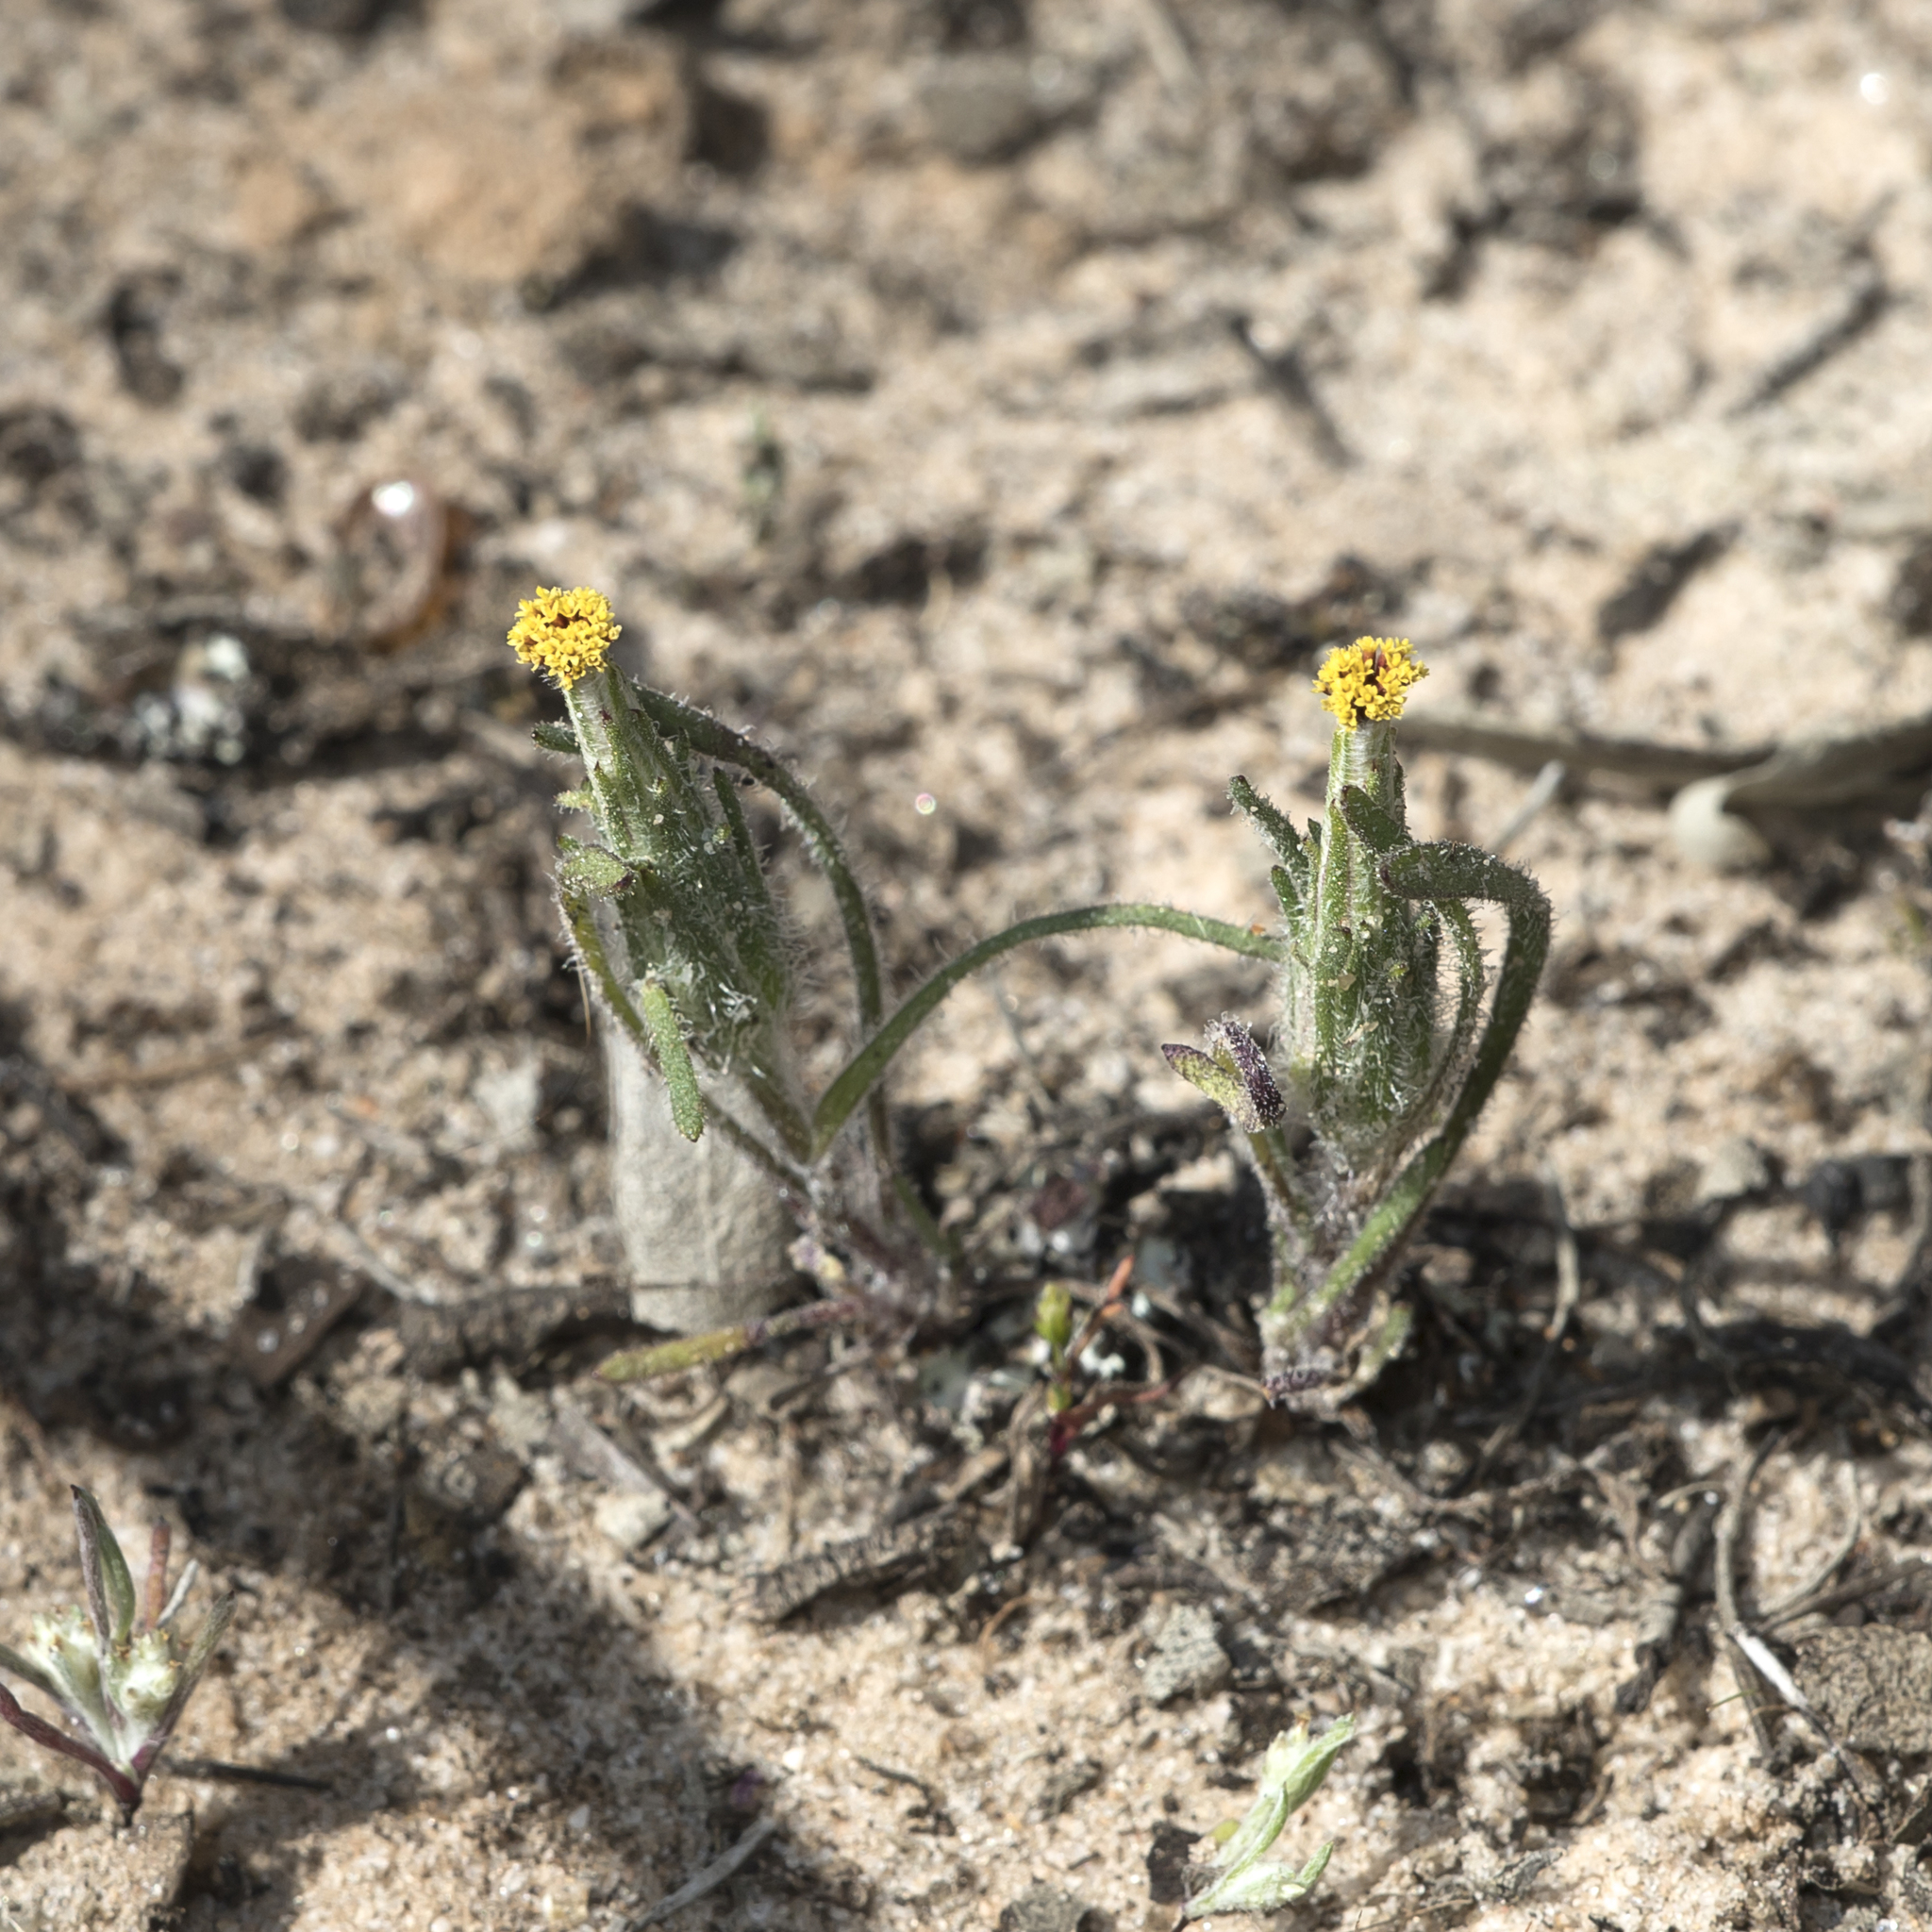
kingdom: Plantae
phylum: Tracheophyta
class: Magnoliopsida
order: Asterales
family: Asteraceae
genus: Podotheca
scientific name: Podotheca angustifolia
